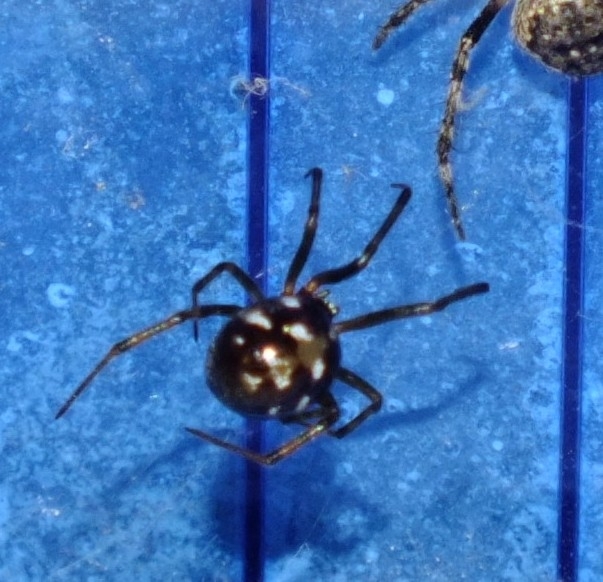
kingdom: Animalia
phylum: Arthropoda
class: Arachnida
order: Araneae
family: Theridiidae
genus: Steatoda
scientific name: Steatoda triangulosa
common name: Triangulate bud spider
